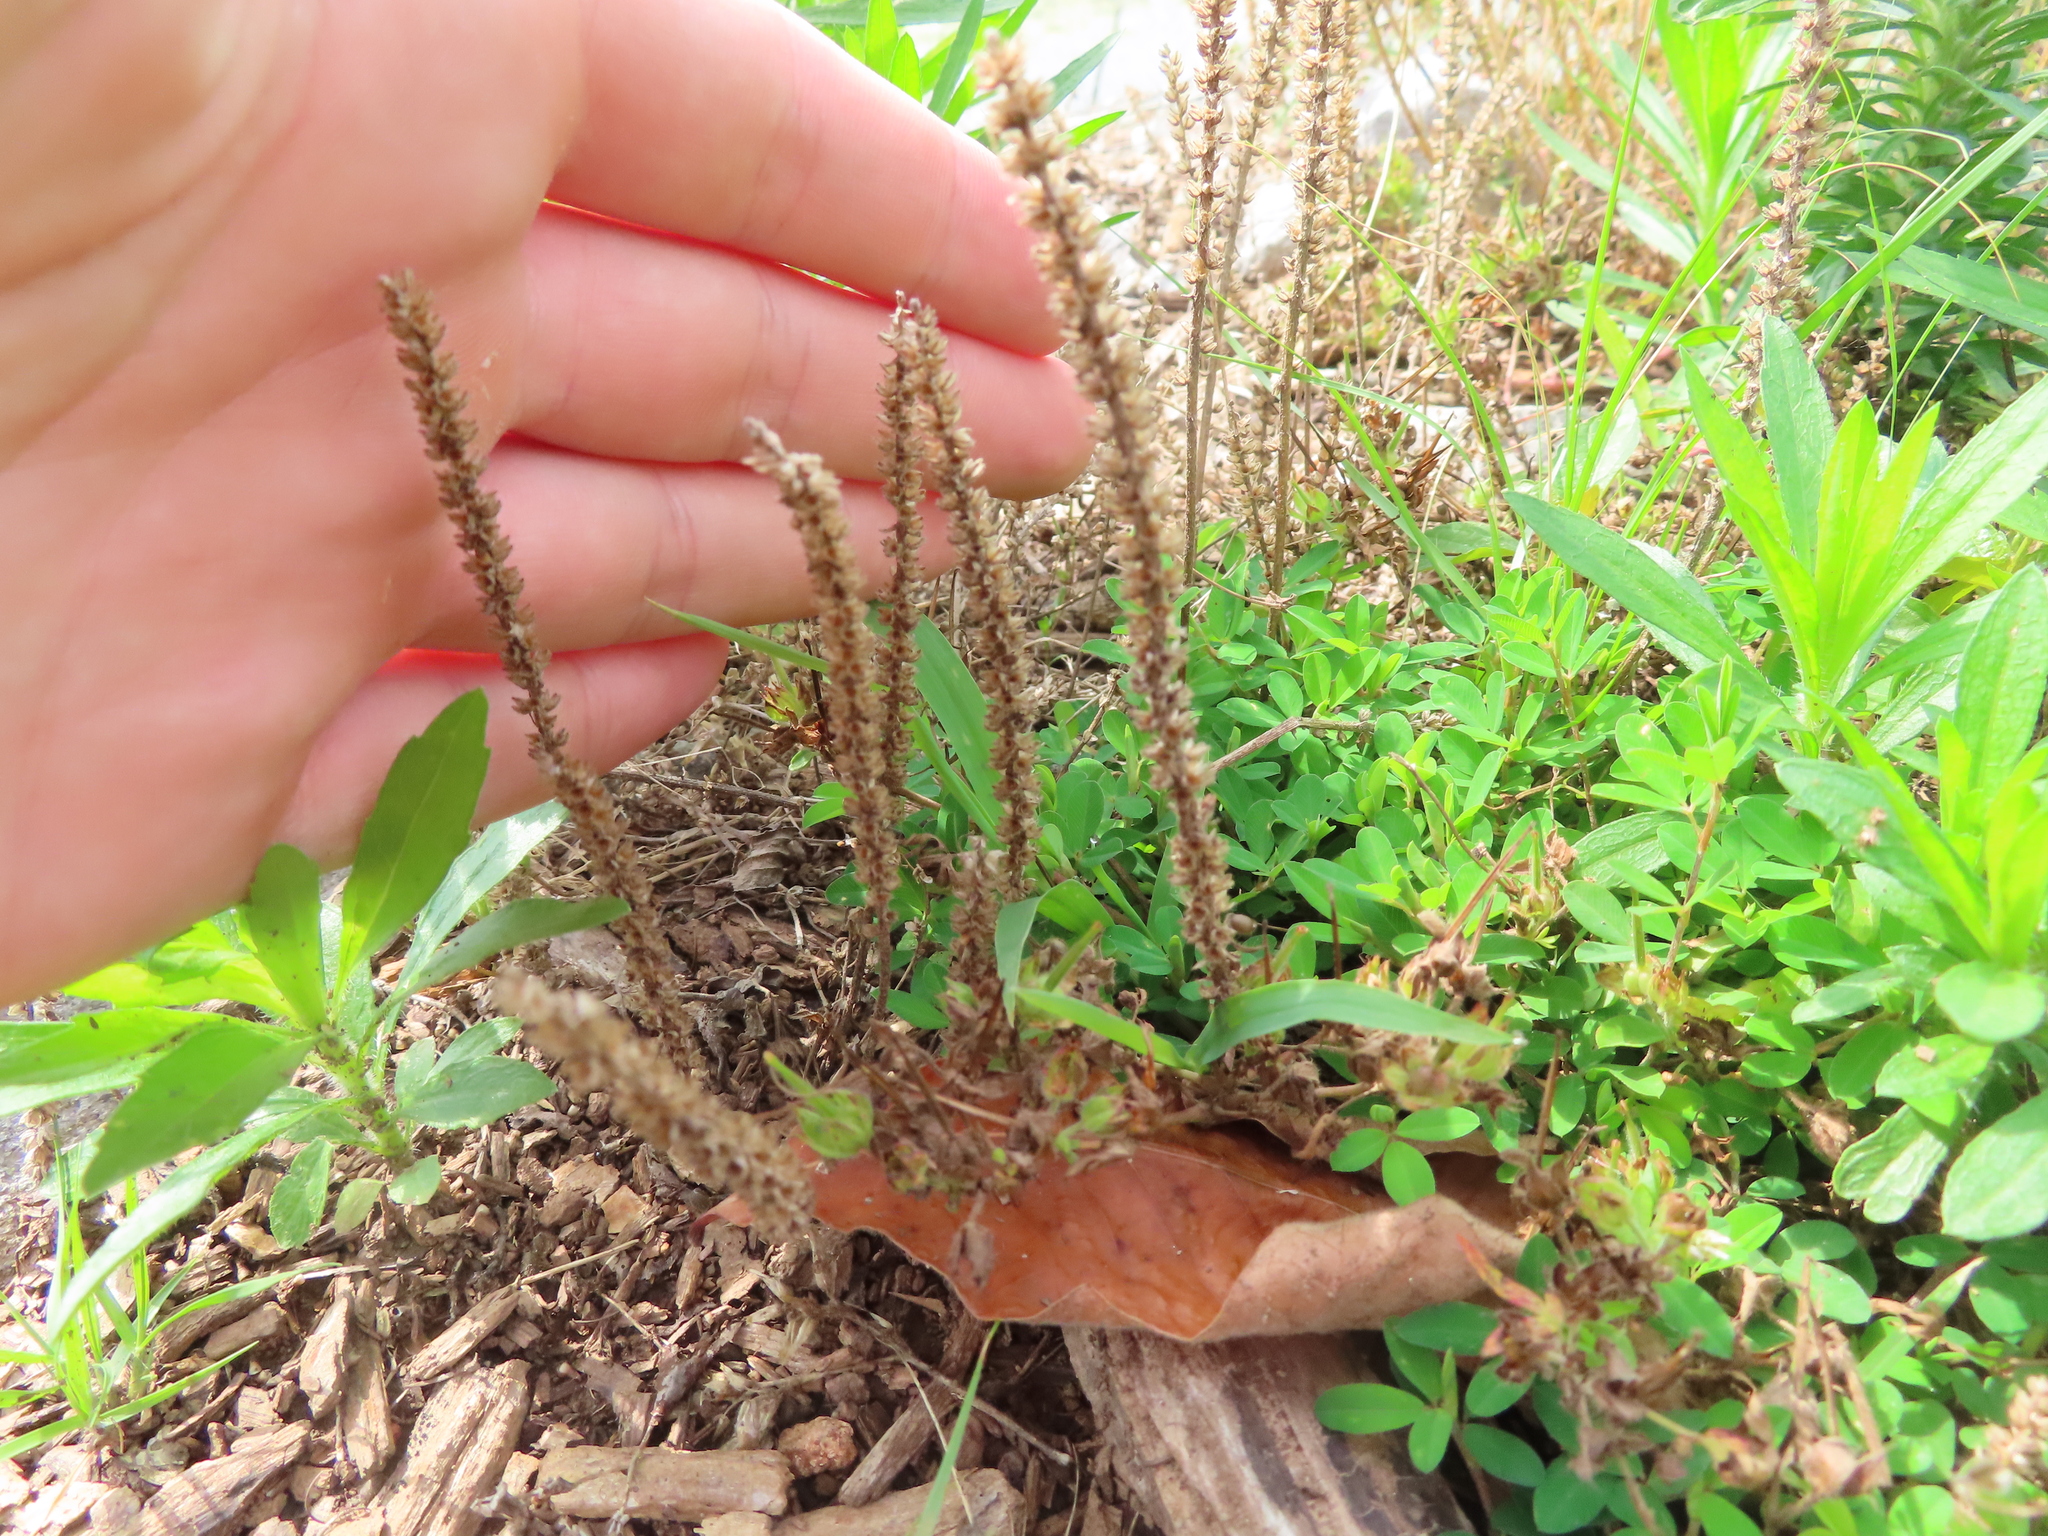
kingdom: Plantae
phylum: Tracheophyta
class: Magnoliopsida
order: Lamiales
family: Plantaginaceae
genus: Plantago
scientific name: Plantago virginica
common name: Hoary plantain
